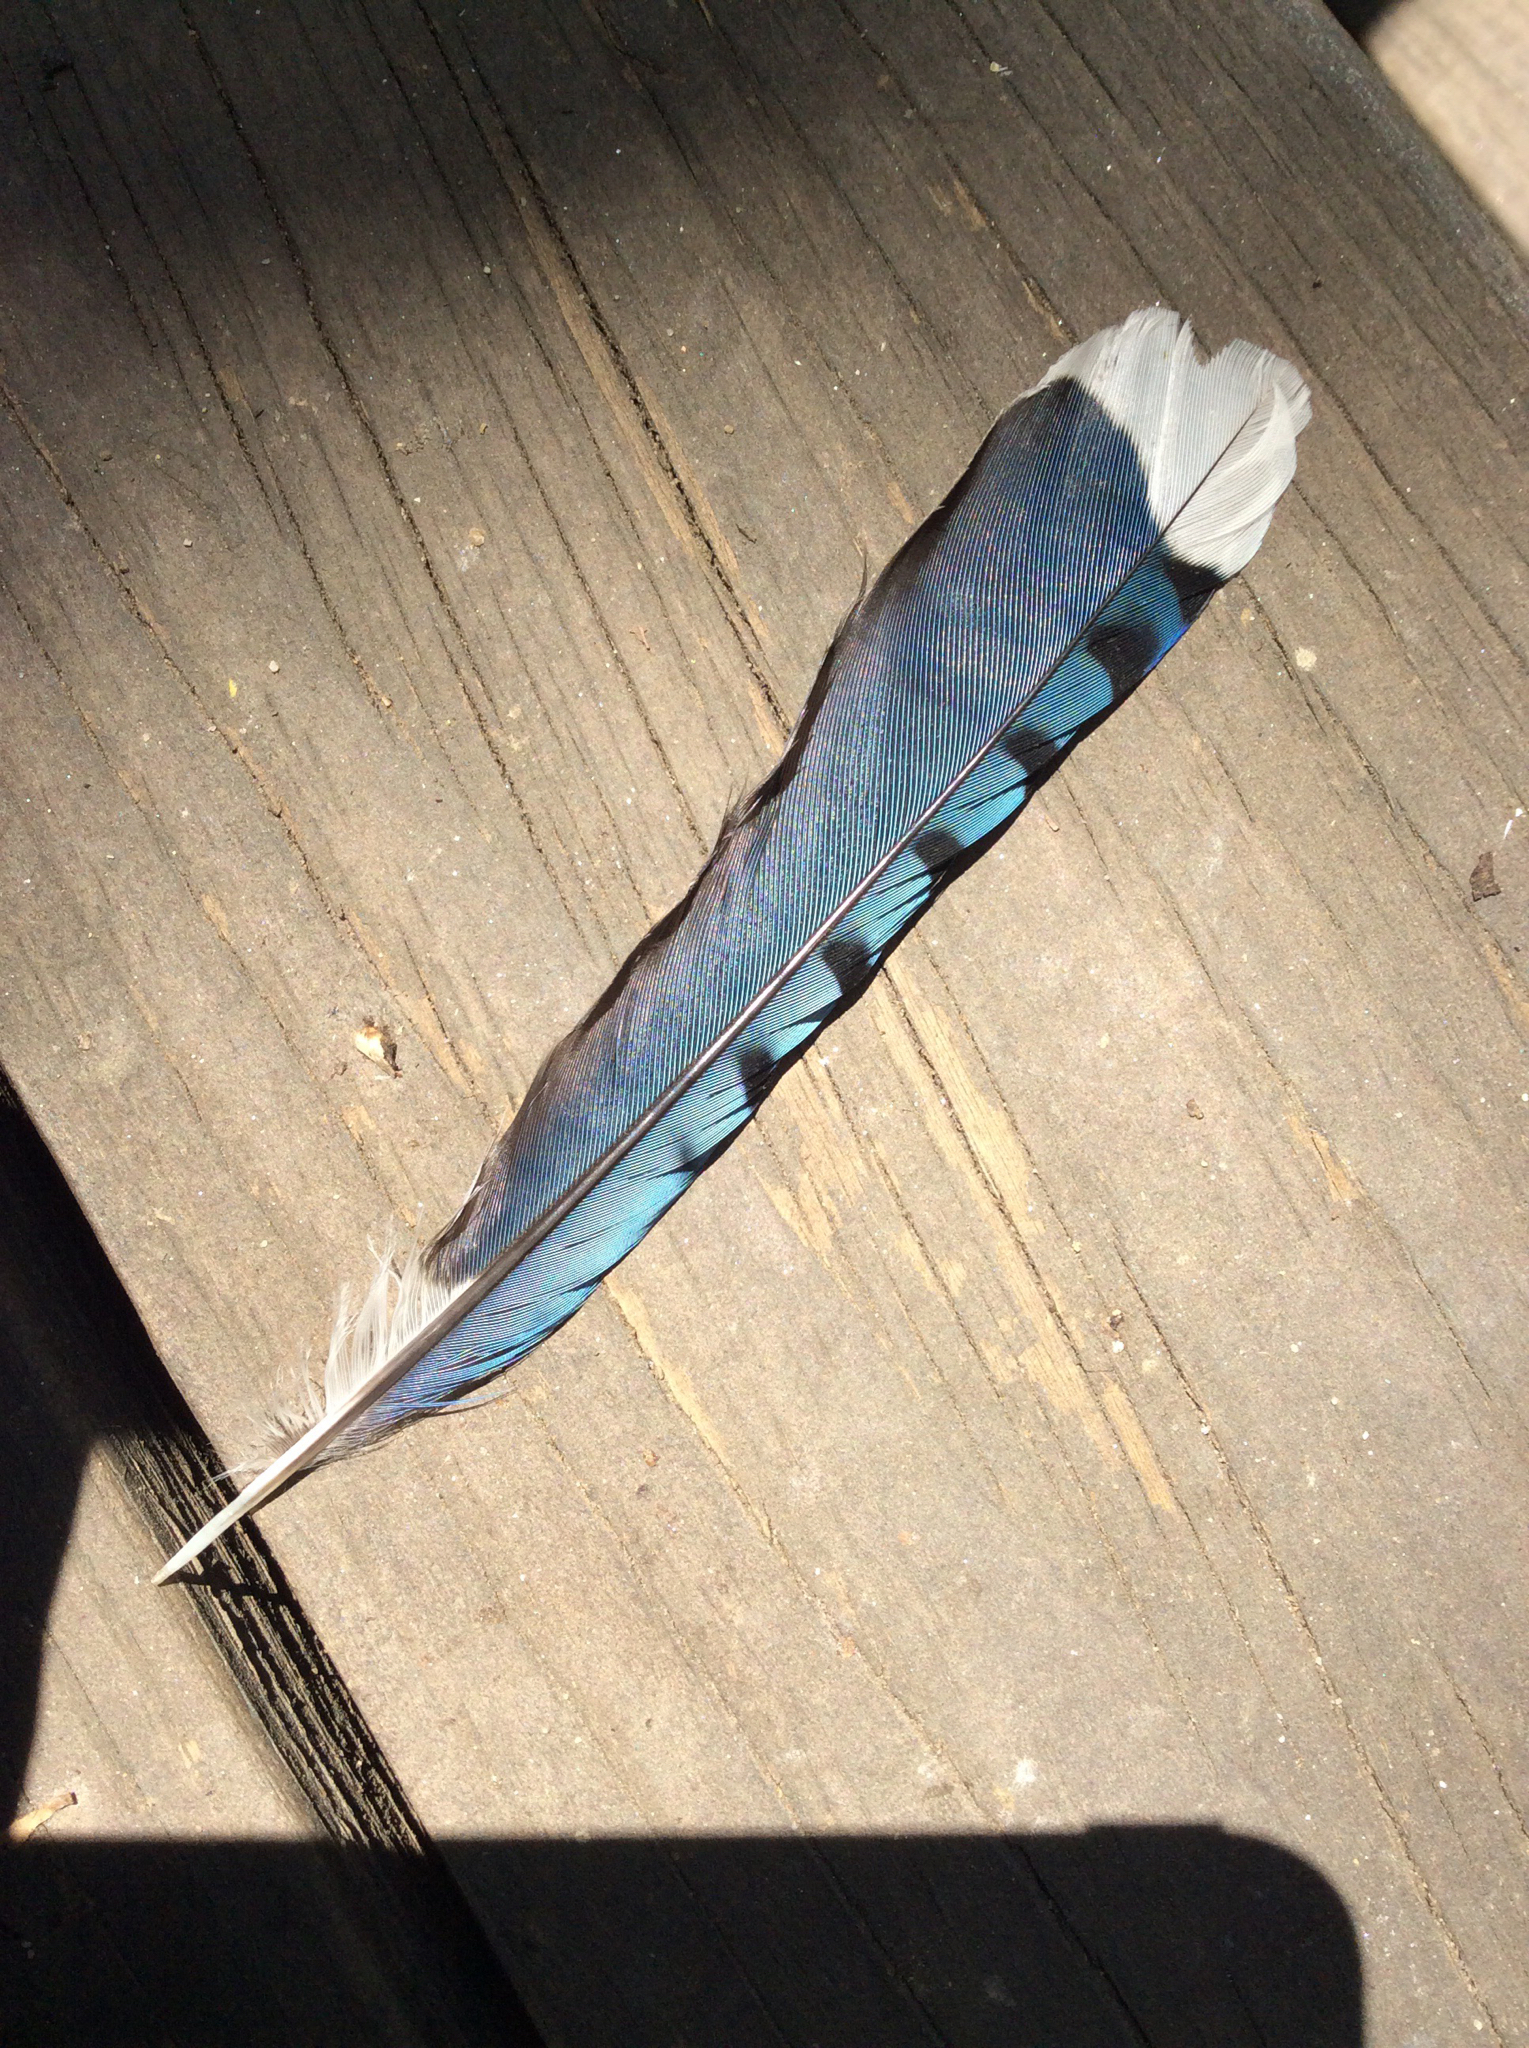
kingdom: Animalia
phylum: Chordata
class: Aves
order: Passeriformes
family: Corvidae
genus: Cyanocitta
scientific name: Cyanocitta cristata
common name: Blue jay
